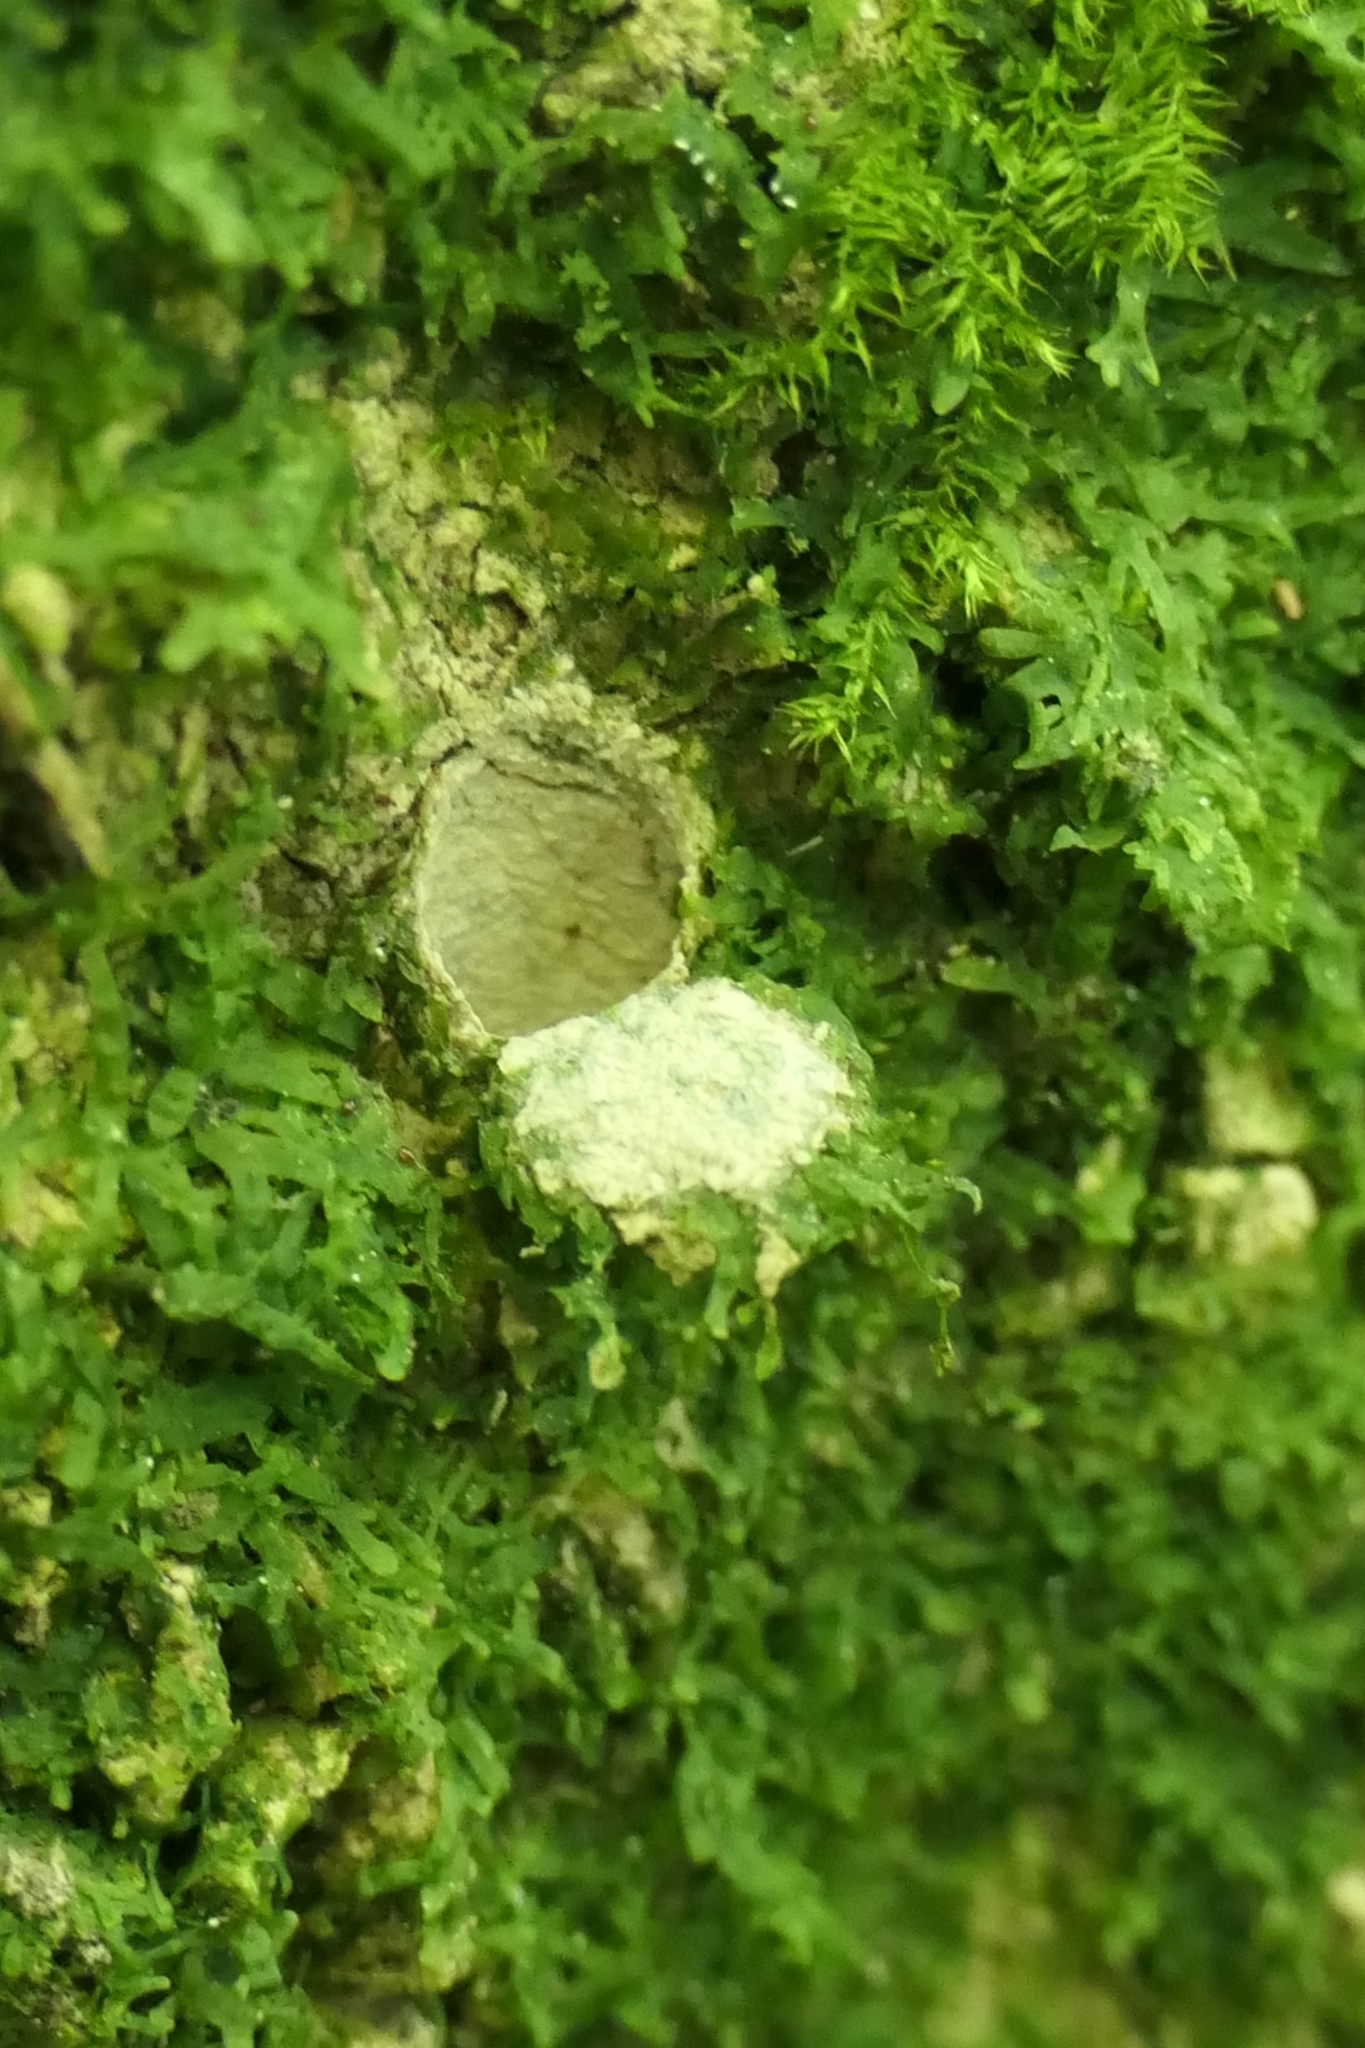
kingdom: Animalia
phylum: Arthropoda
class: Arachnida
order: Araneae
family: Migidae
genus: Migas
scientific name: Migas
